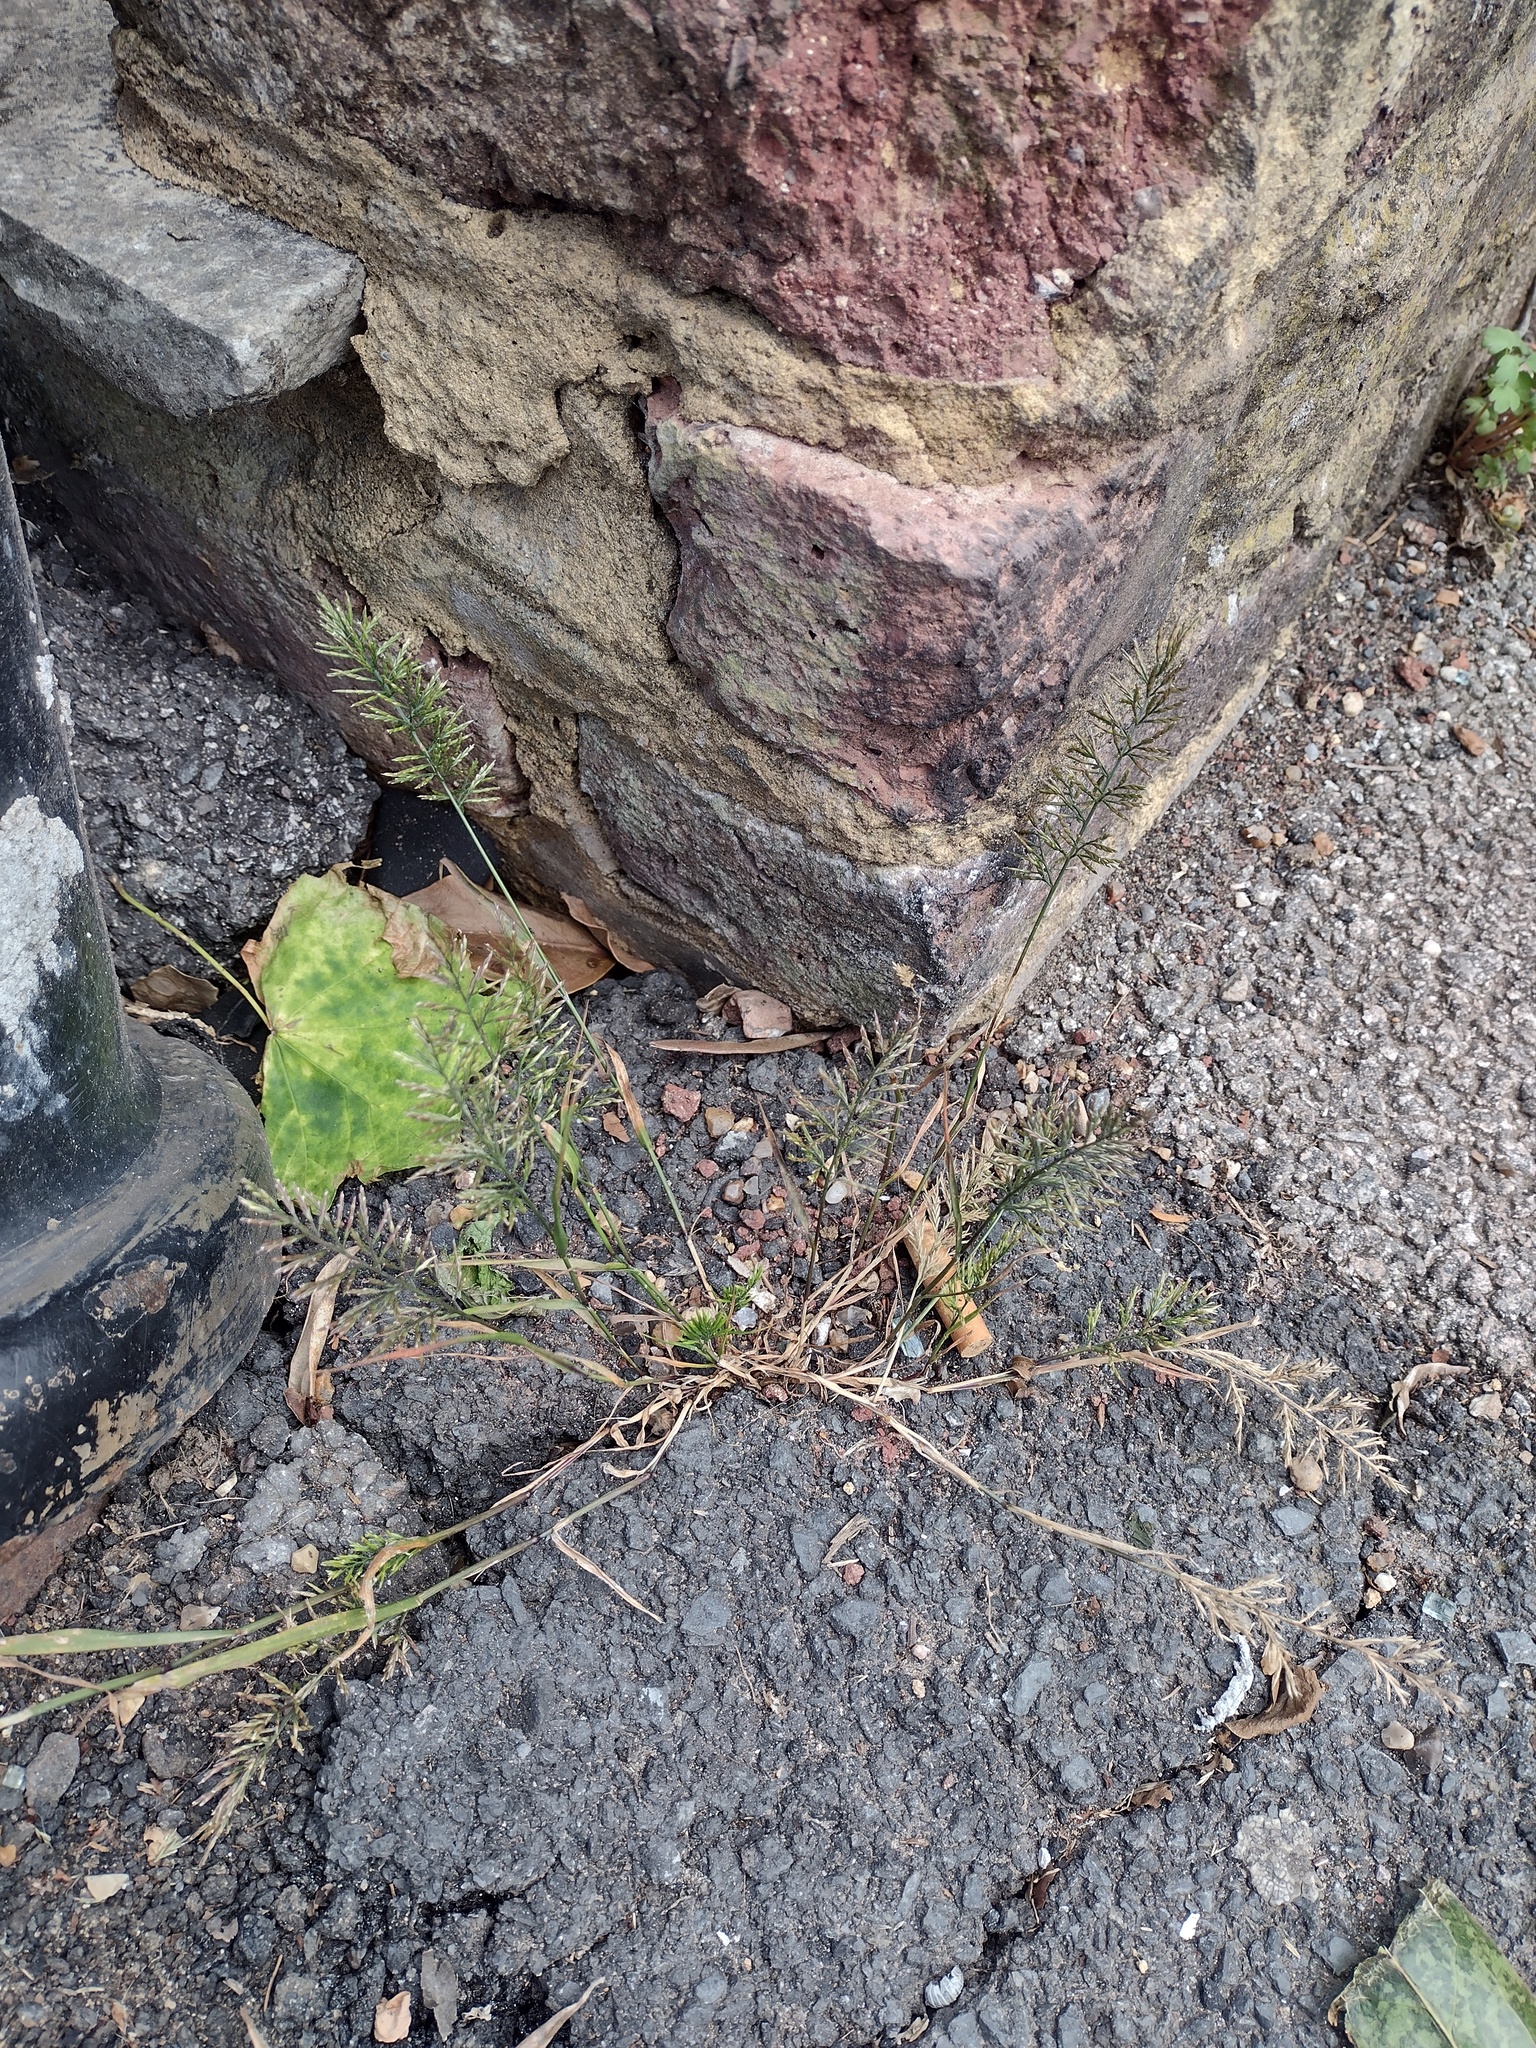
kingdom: Plantae
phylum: Tracheophyta
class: Liliopsida
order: Poales
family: Poaceae
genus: Catapodium
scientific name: Catapodium rigidum
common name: Fern-grass
